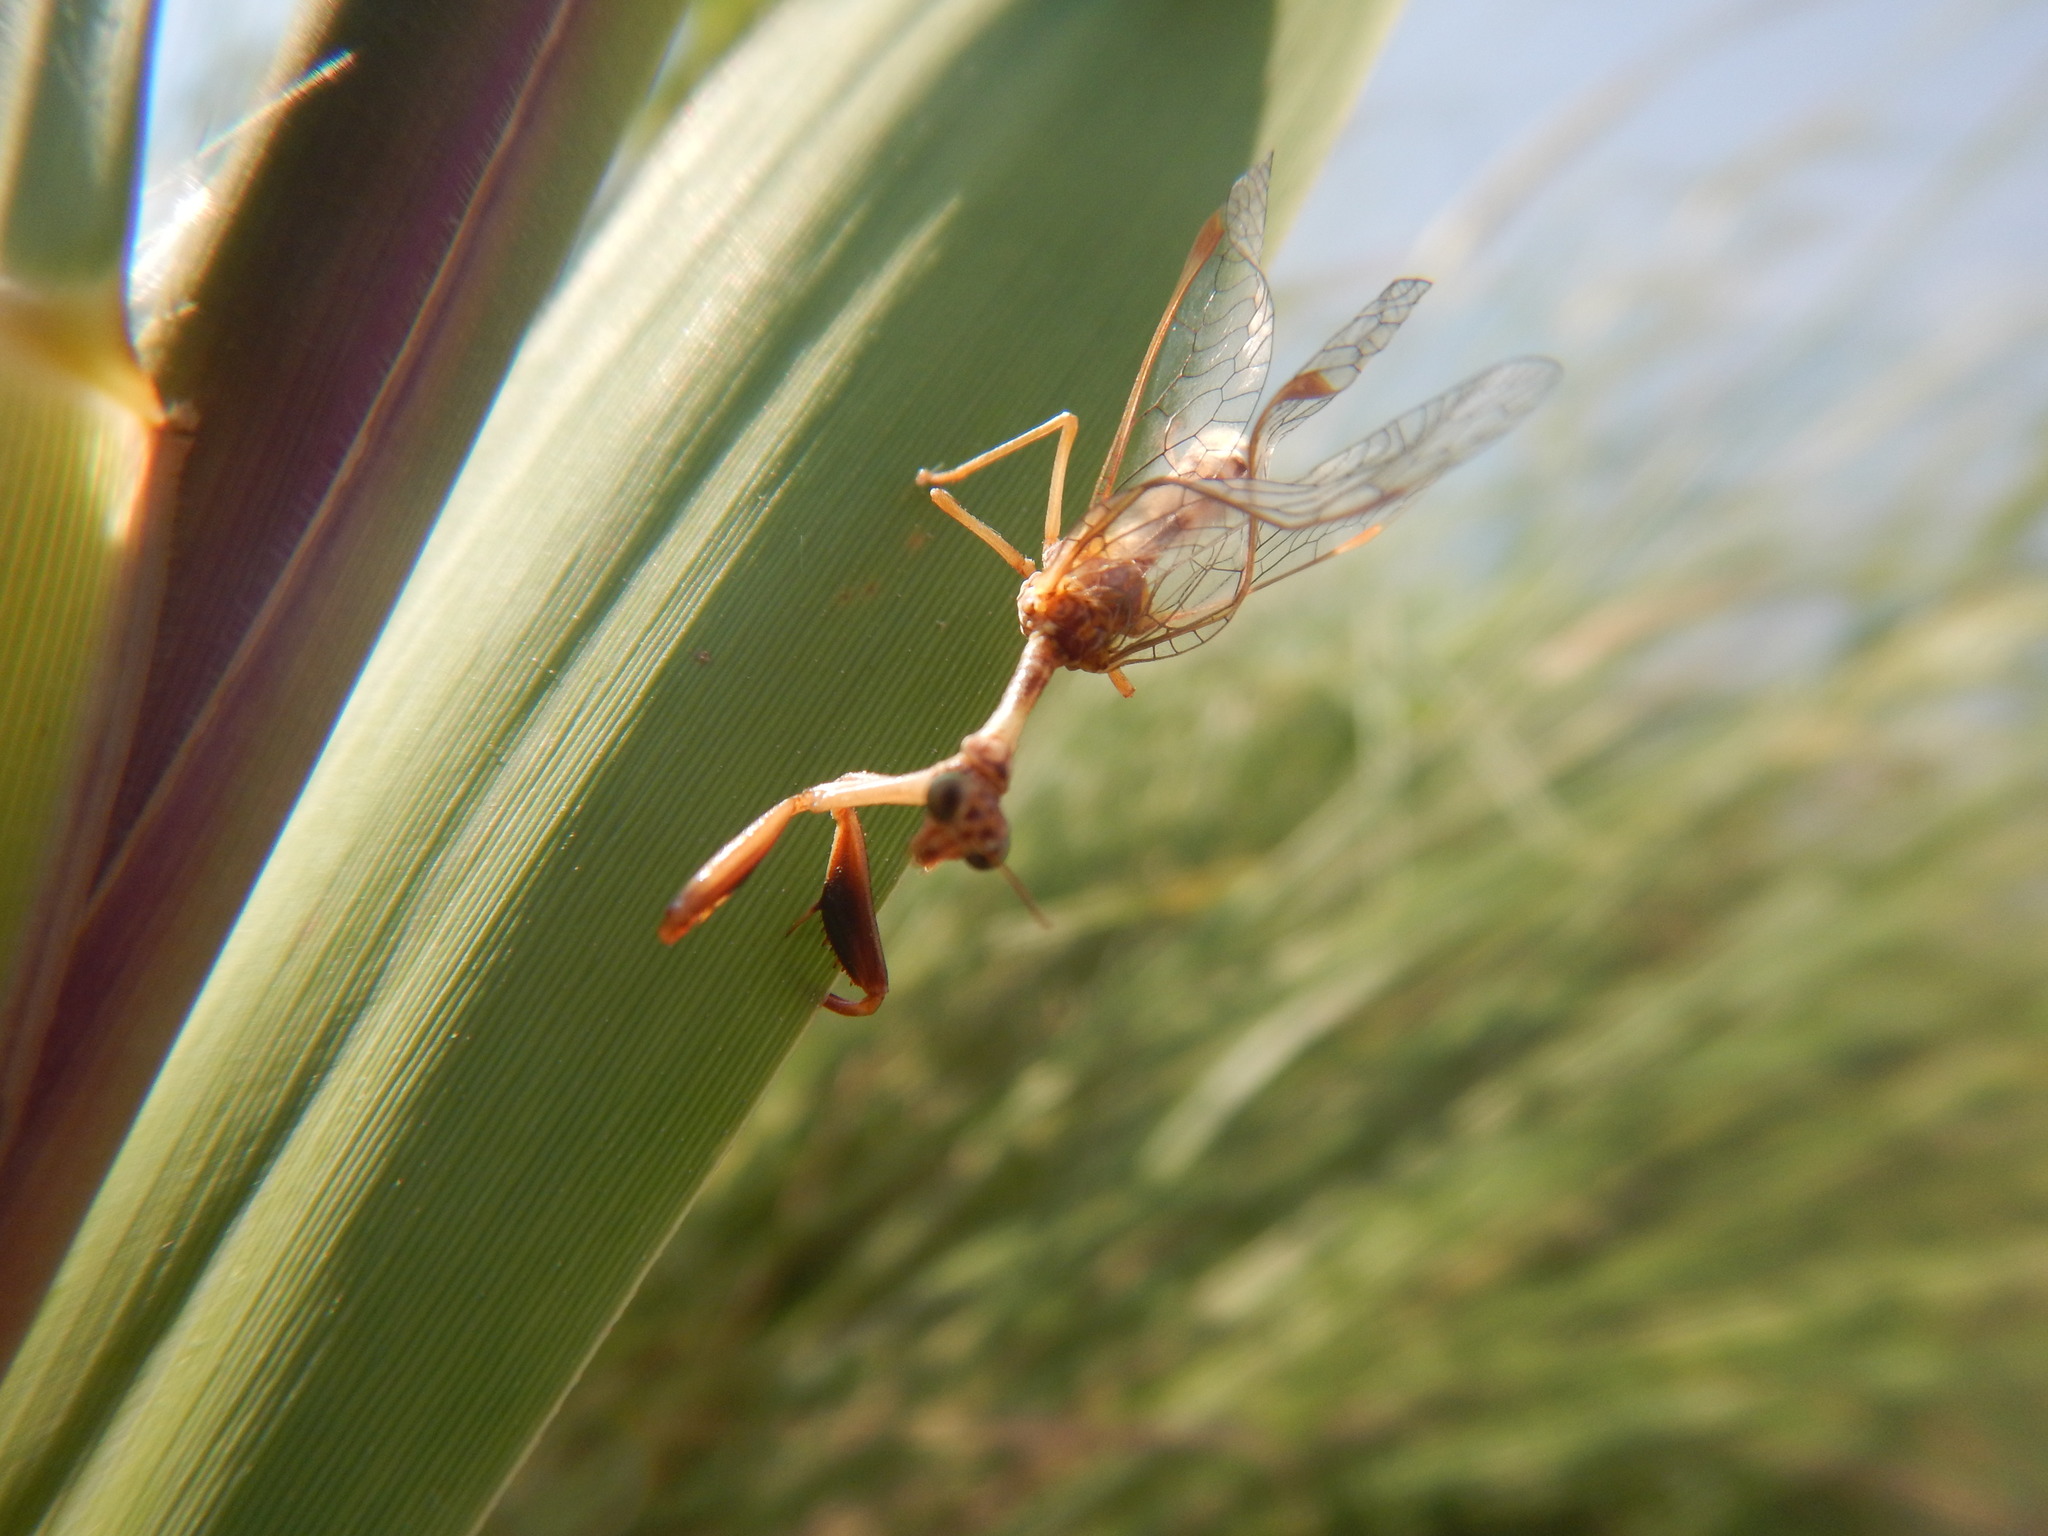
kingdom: Animalia
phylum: Arthropoda
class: Insecta
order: Neuroptera
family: Mantispidae
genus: Mantispa
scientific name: Mantispa styriaca
